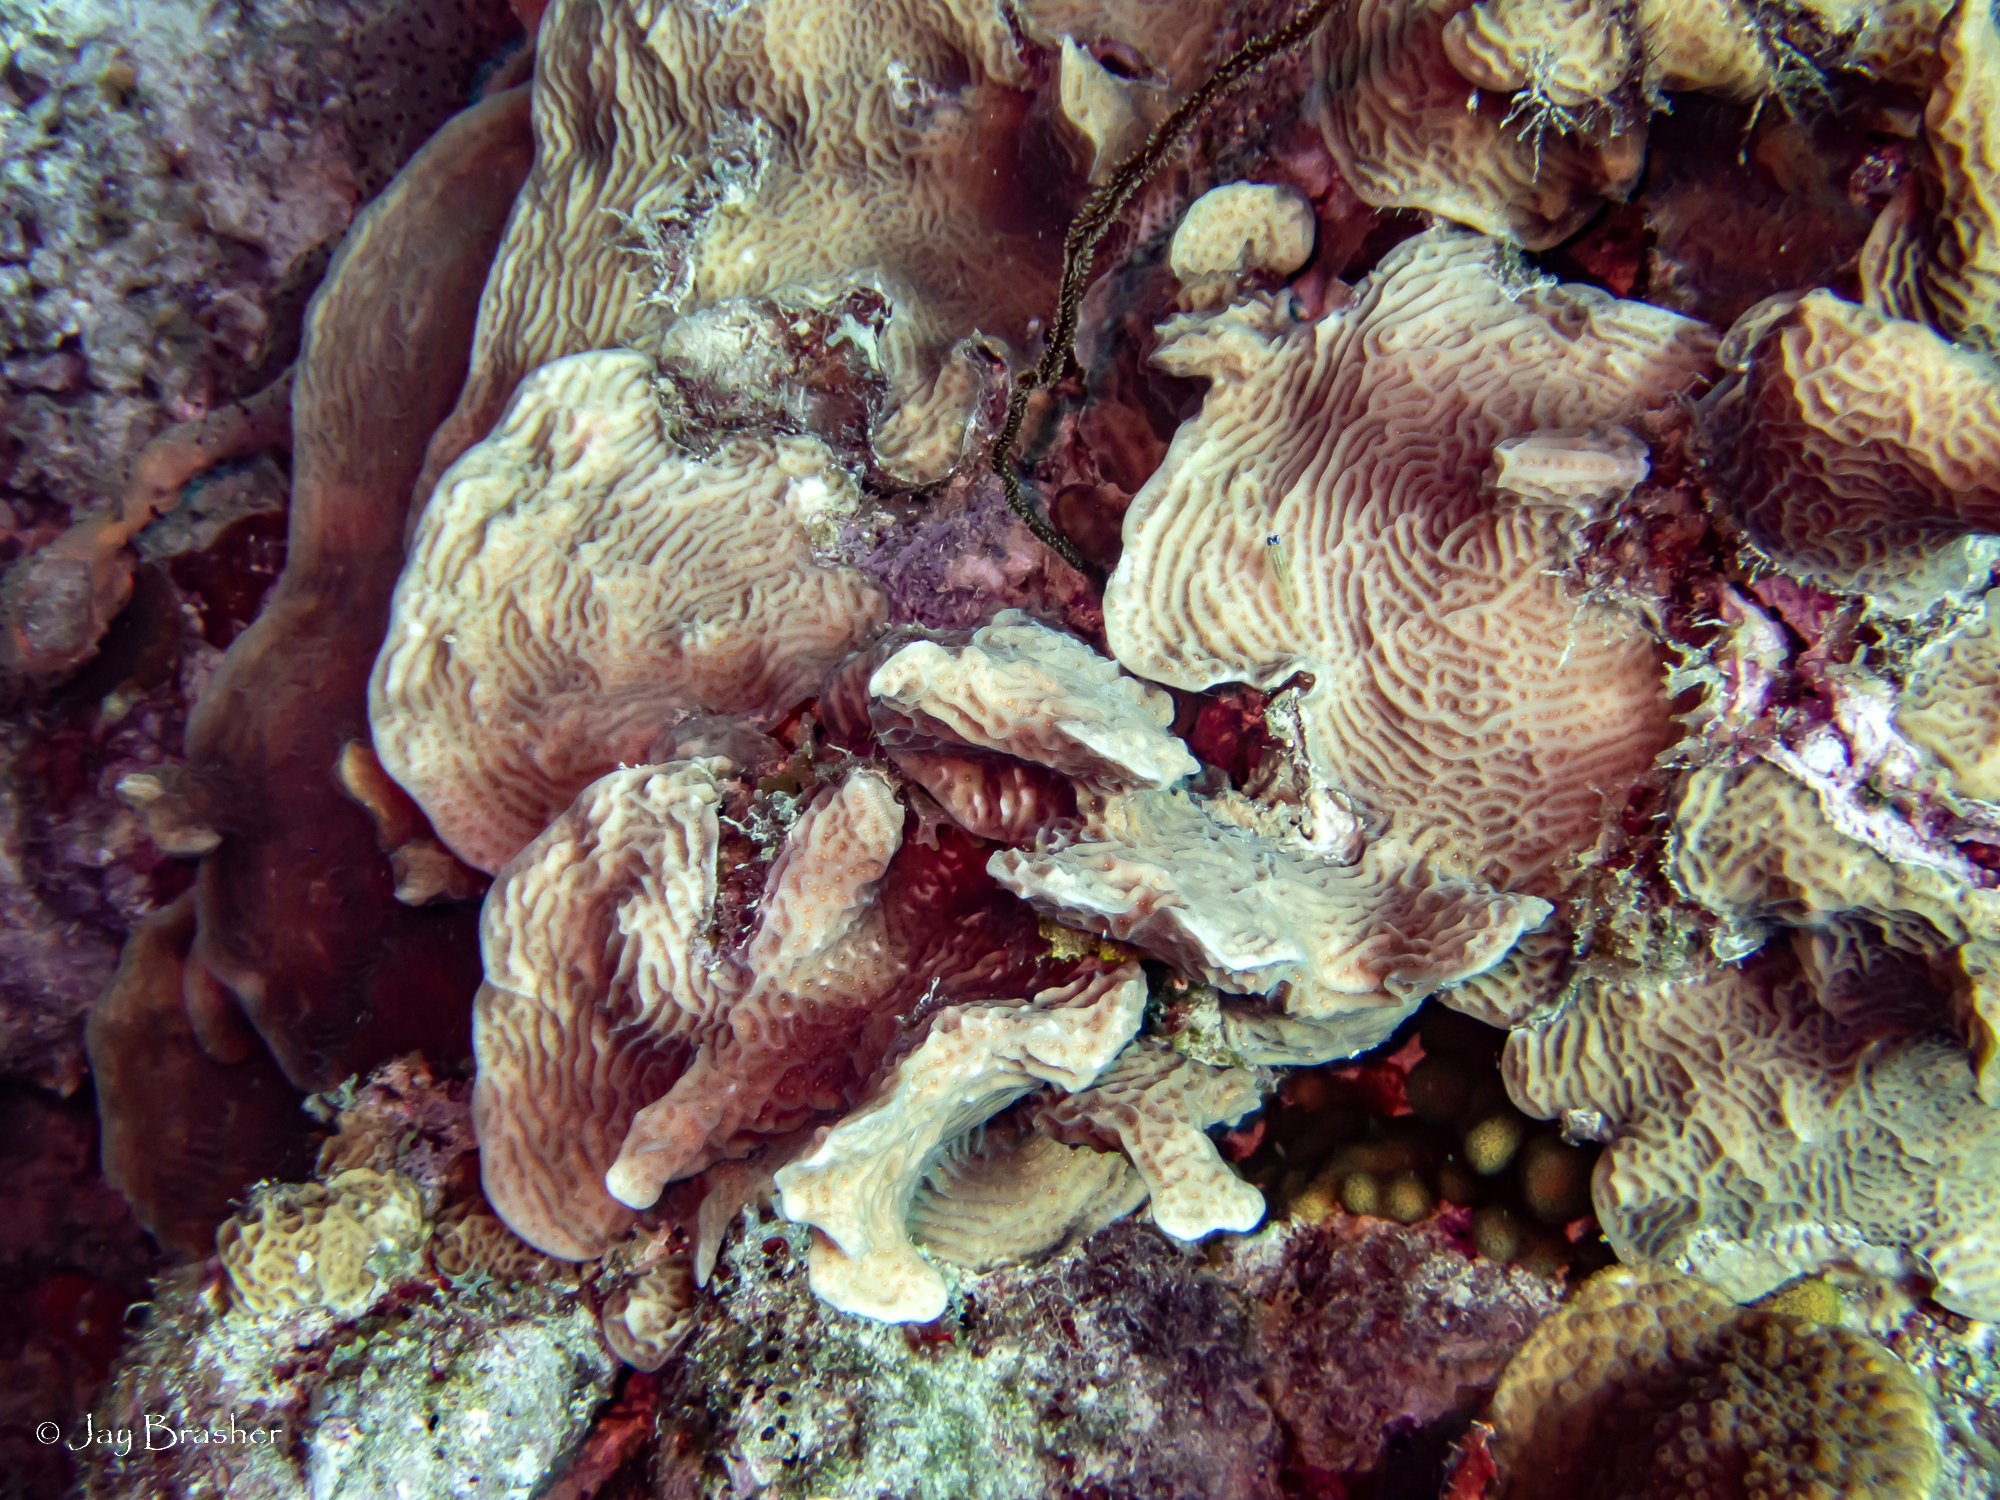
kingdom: Animalia
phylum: Cnidaria
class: Anthozoa
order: Scleractinia
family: Agariciidae
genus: Agaricia
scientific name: Agaricia agaricites
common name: Lettuce coral
